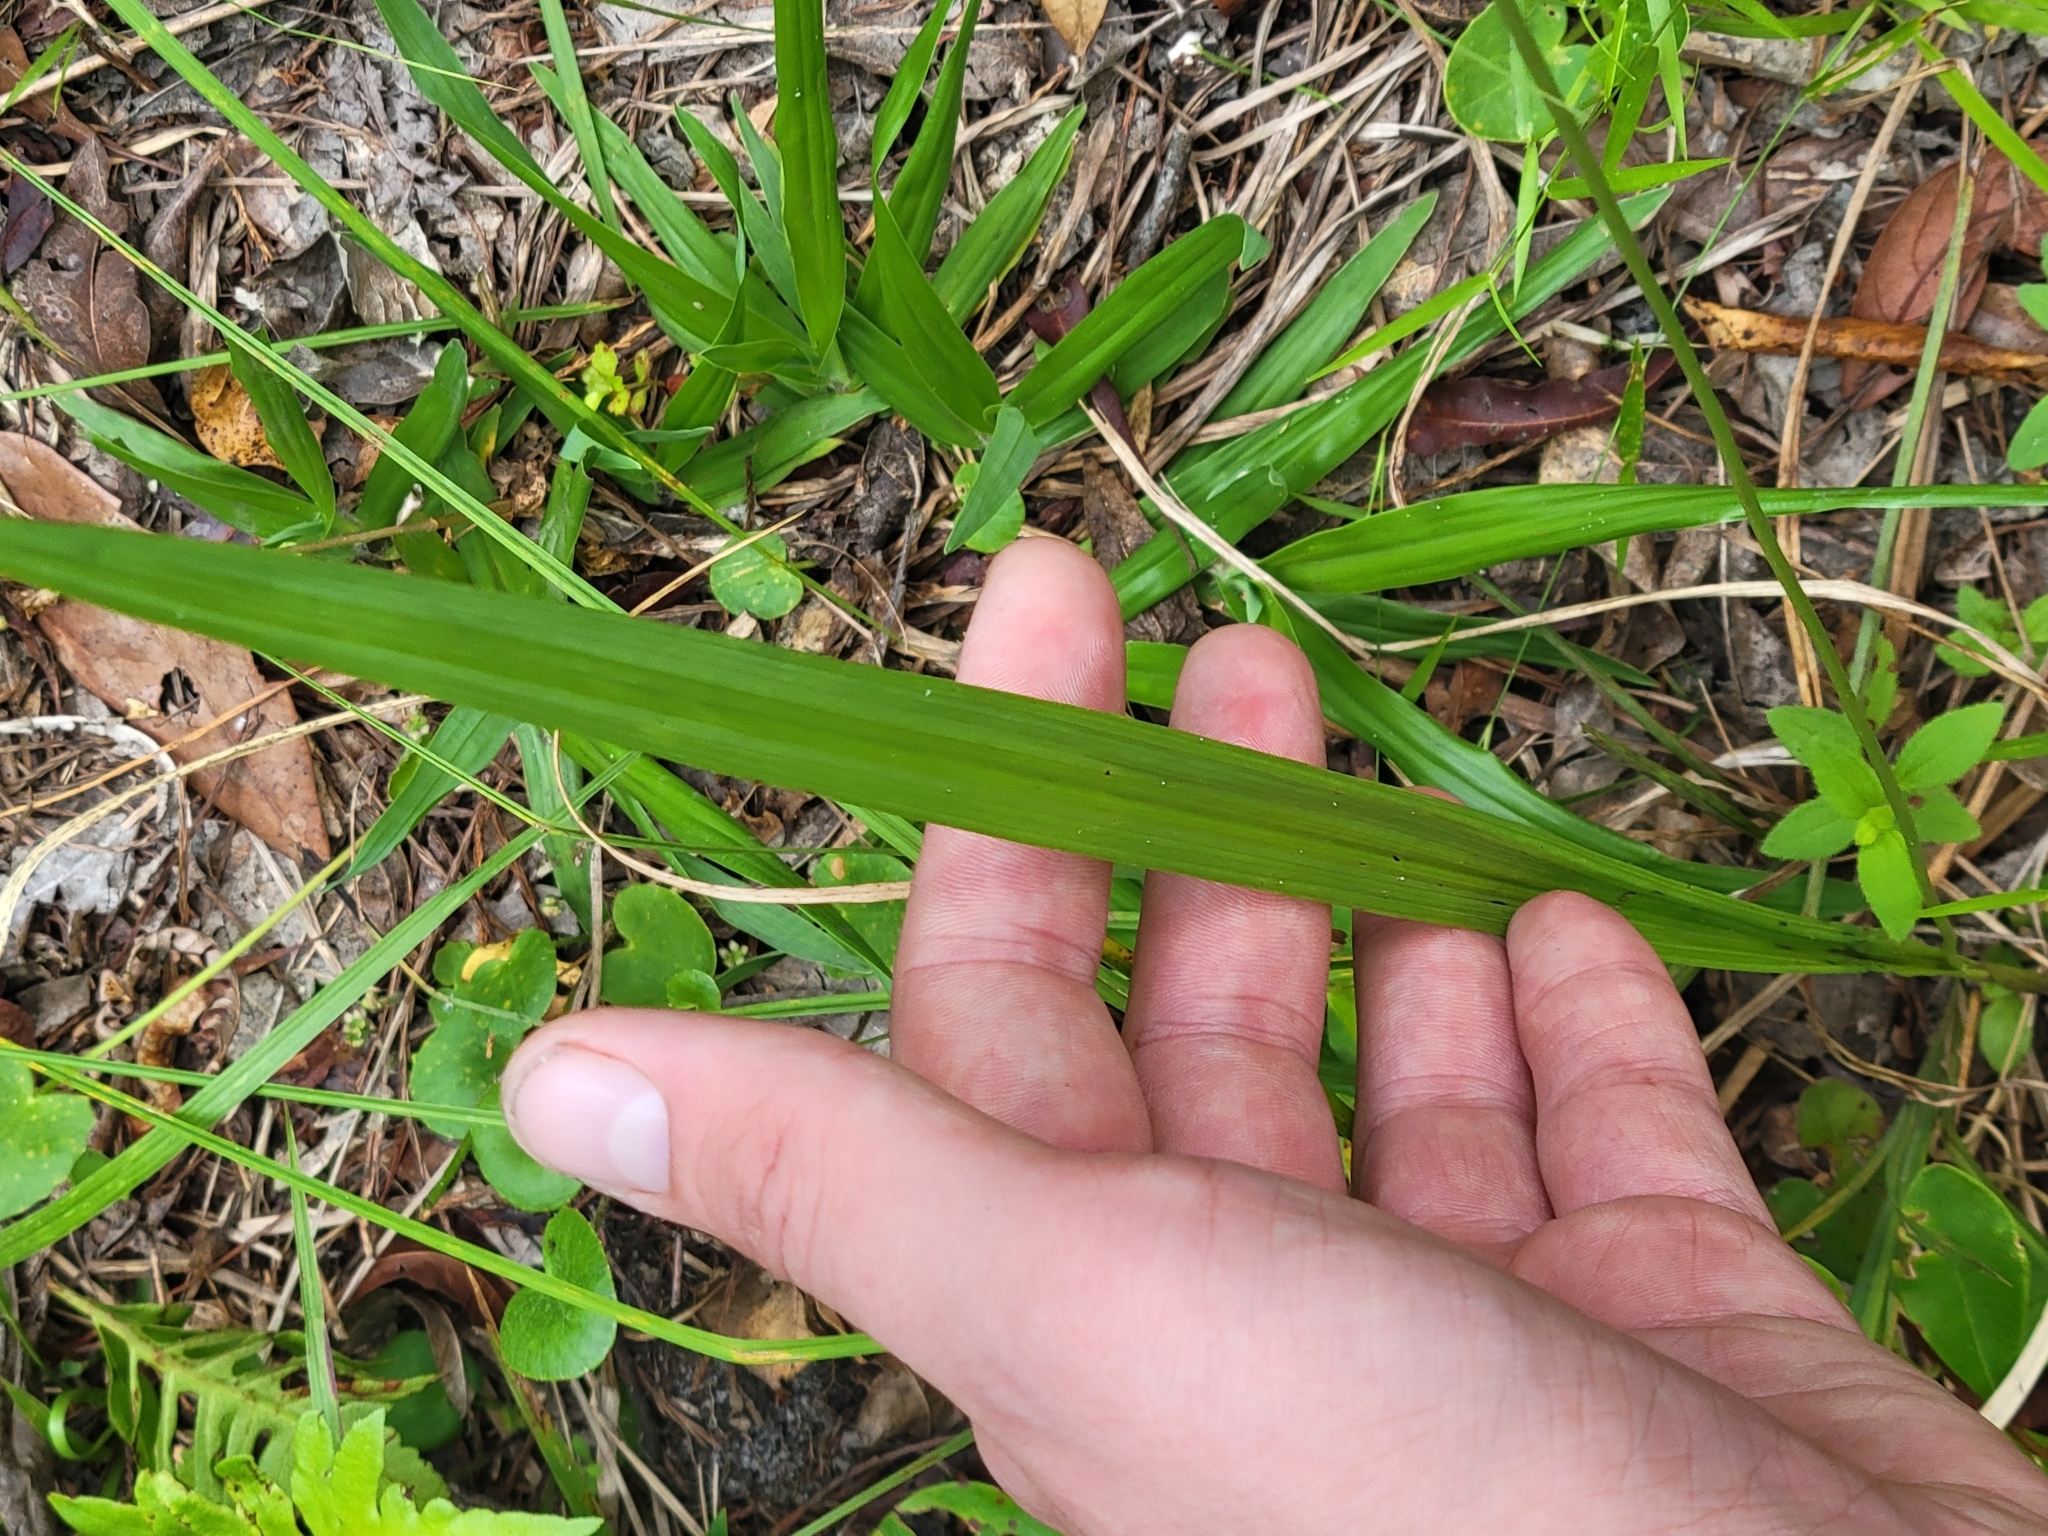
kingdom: Plantae
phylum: Tracheophyta
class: Liliopsida
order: Asparagales
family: Orchidaceae
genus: Calopogon
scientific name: Calopogon tuberosus
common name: Grass-pink
